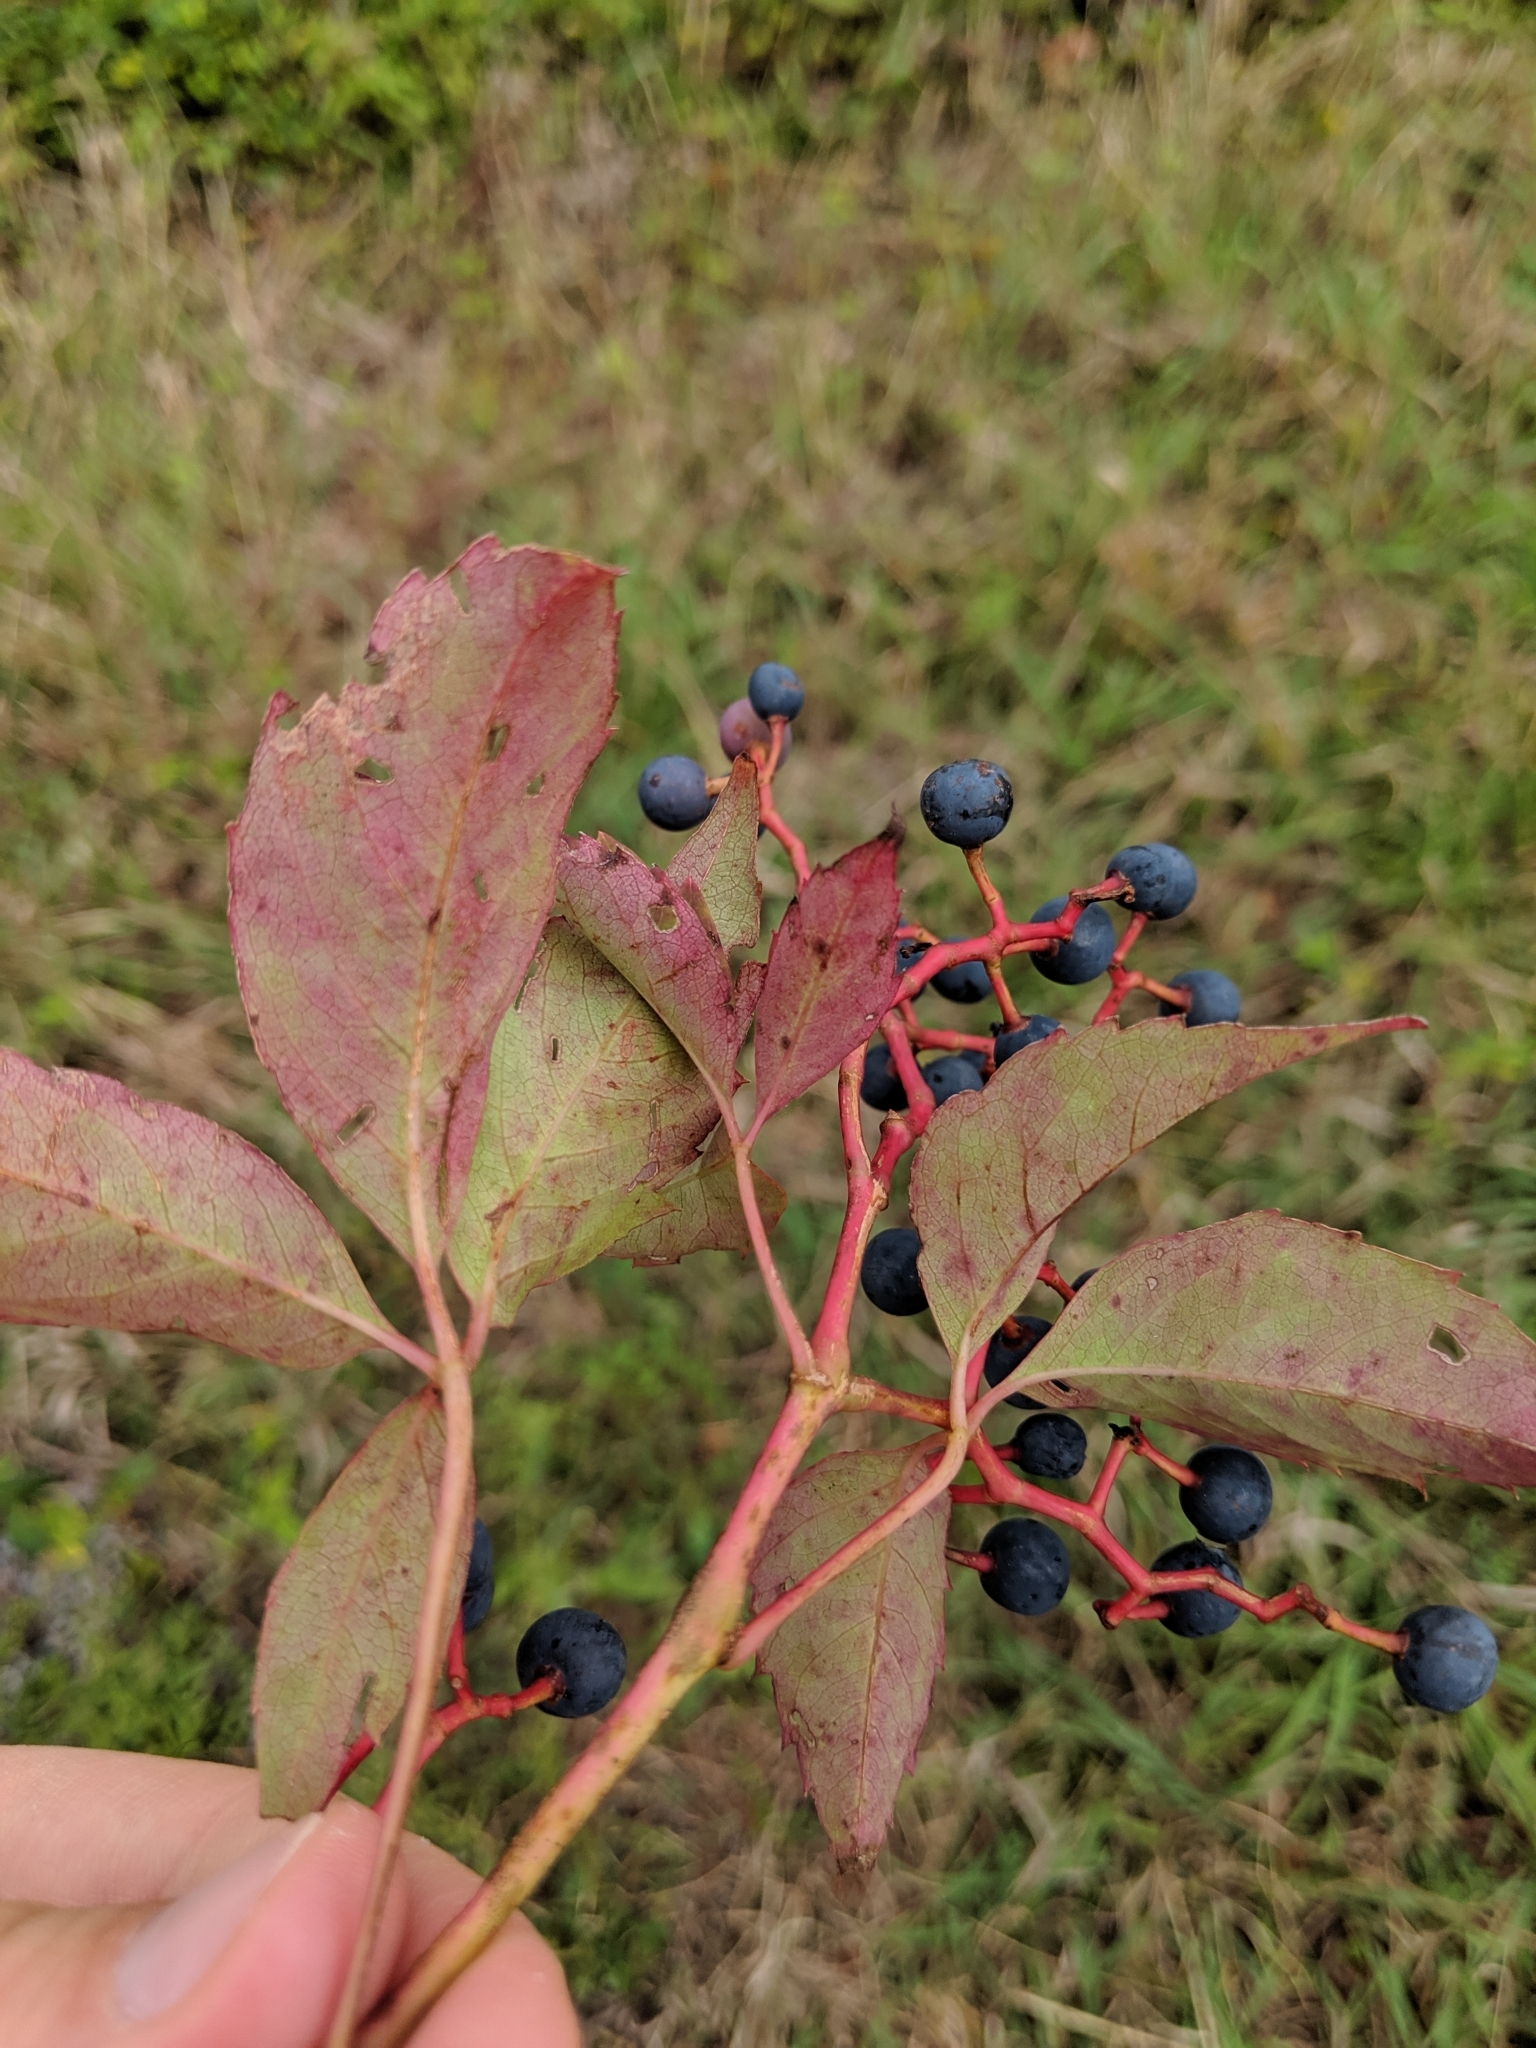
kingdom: Plantae
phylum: Tracheophyta
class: Magnoliopsida
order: Vitales
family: Vitaceae
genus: Parthenocissus
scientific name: Parthenocissus quinquefolia
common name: Virginia-creeper
